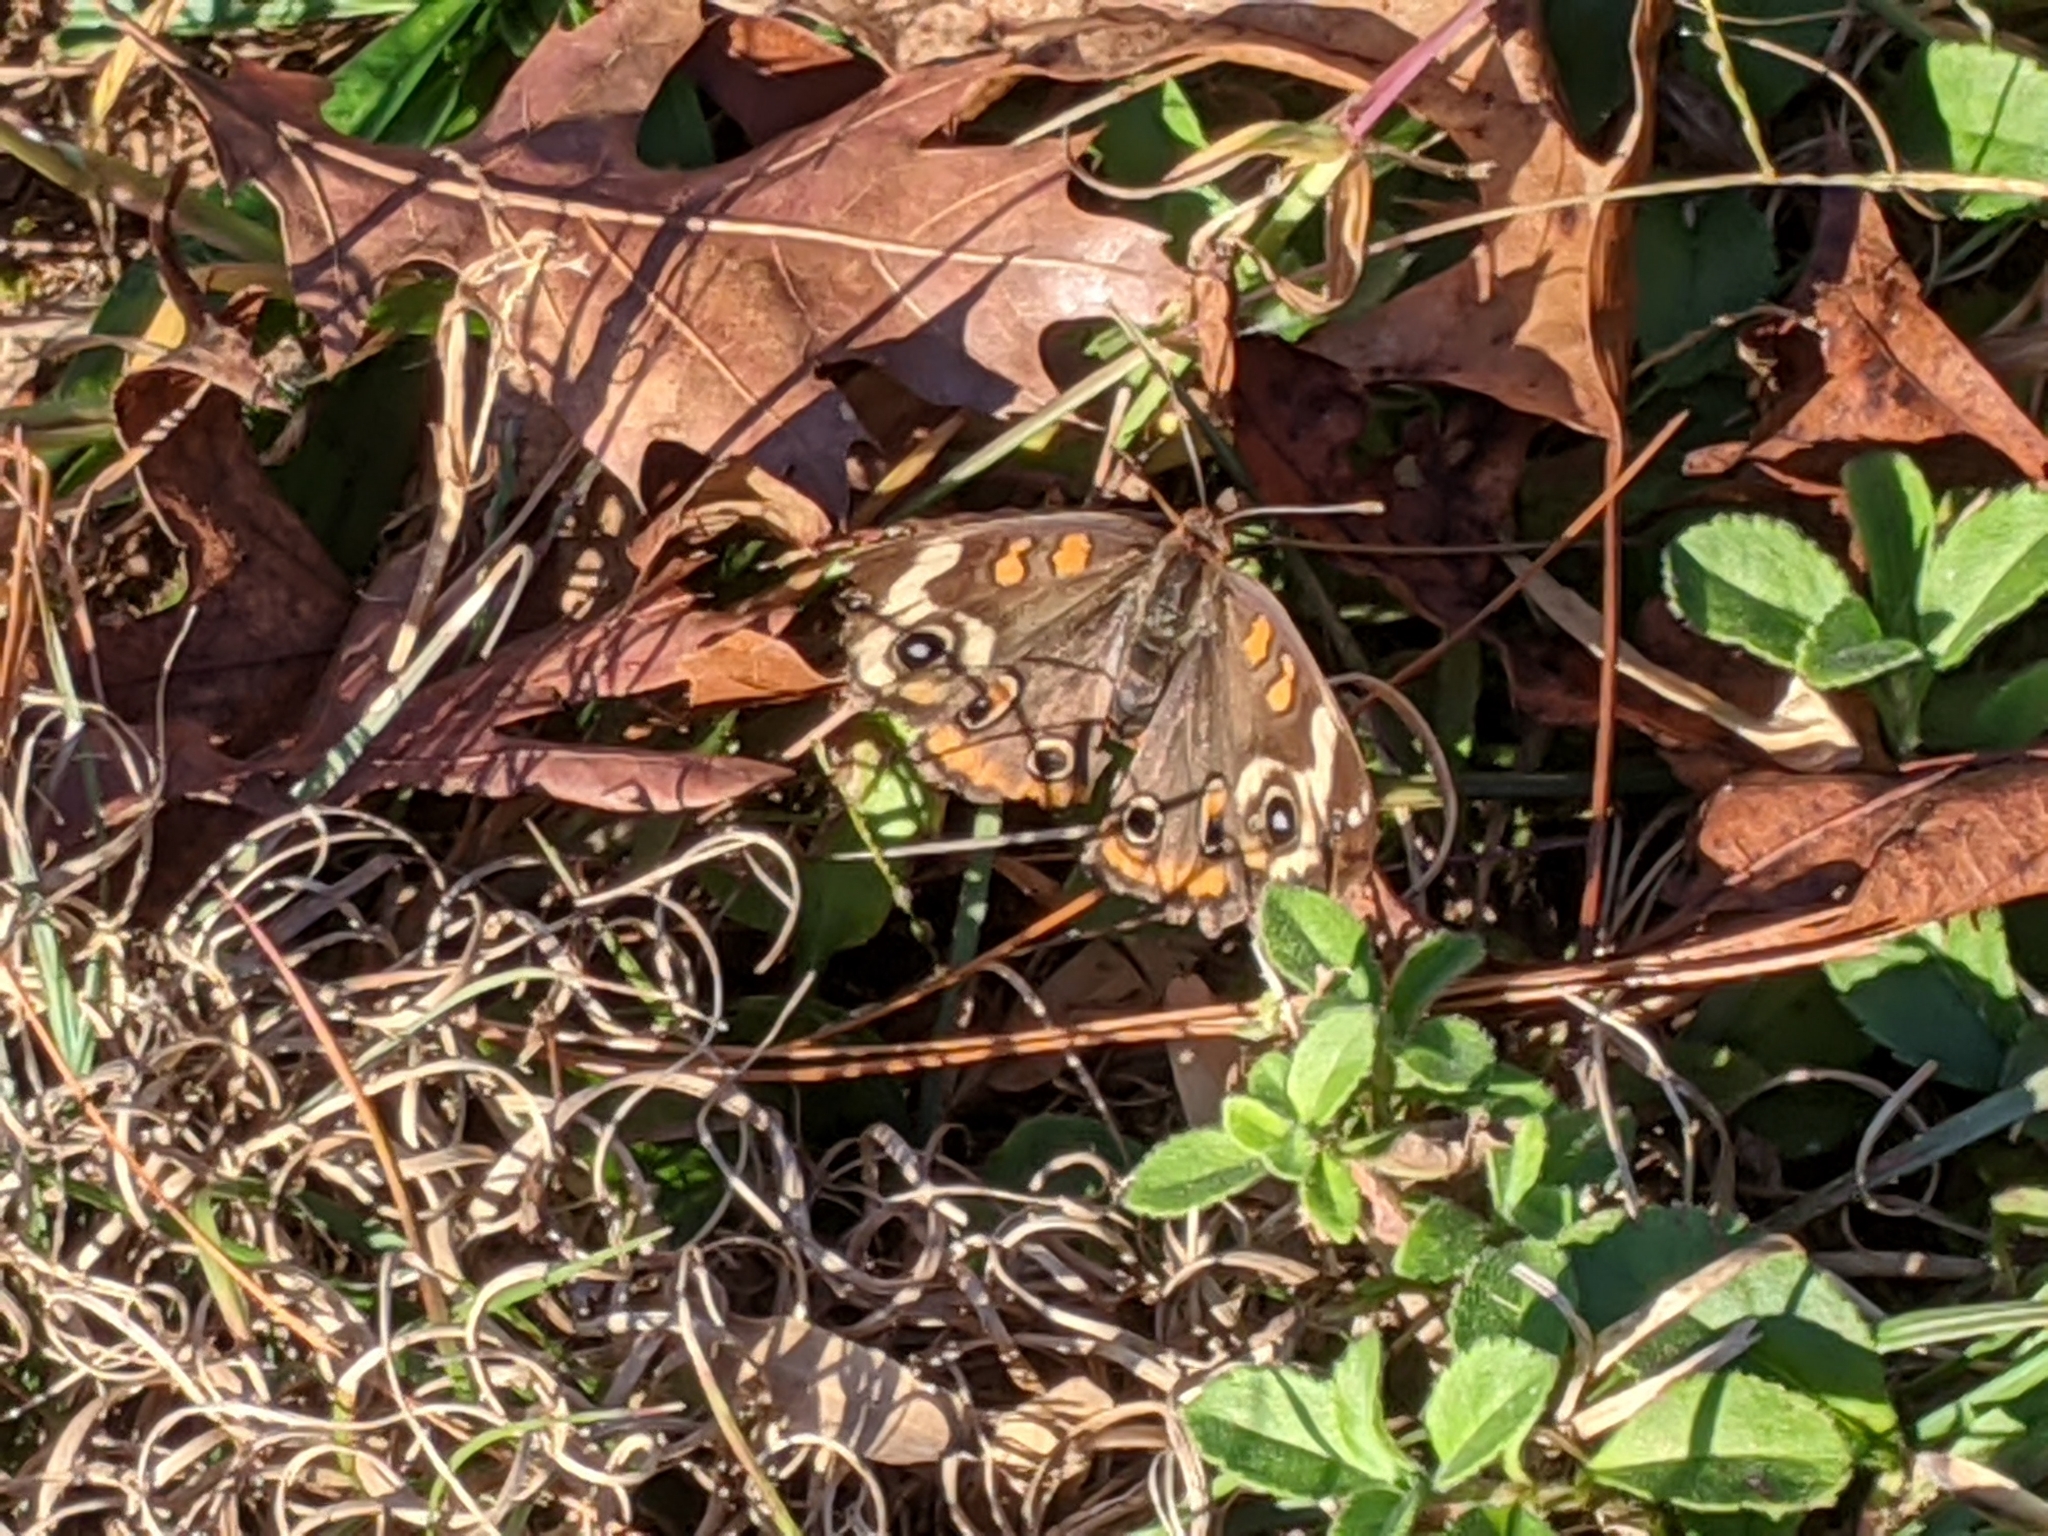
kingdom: Animalia
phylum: Arthropoda
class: Insecta
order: Lepidoptera
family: Nymphalidae
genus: Junonia
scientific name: Junonia coenia
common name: Common buckeye
